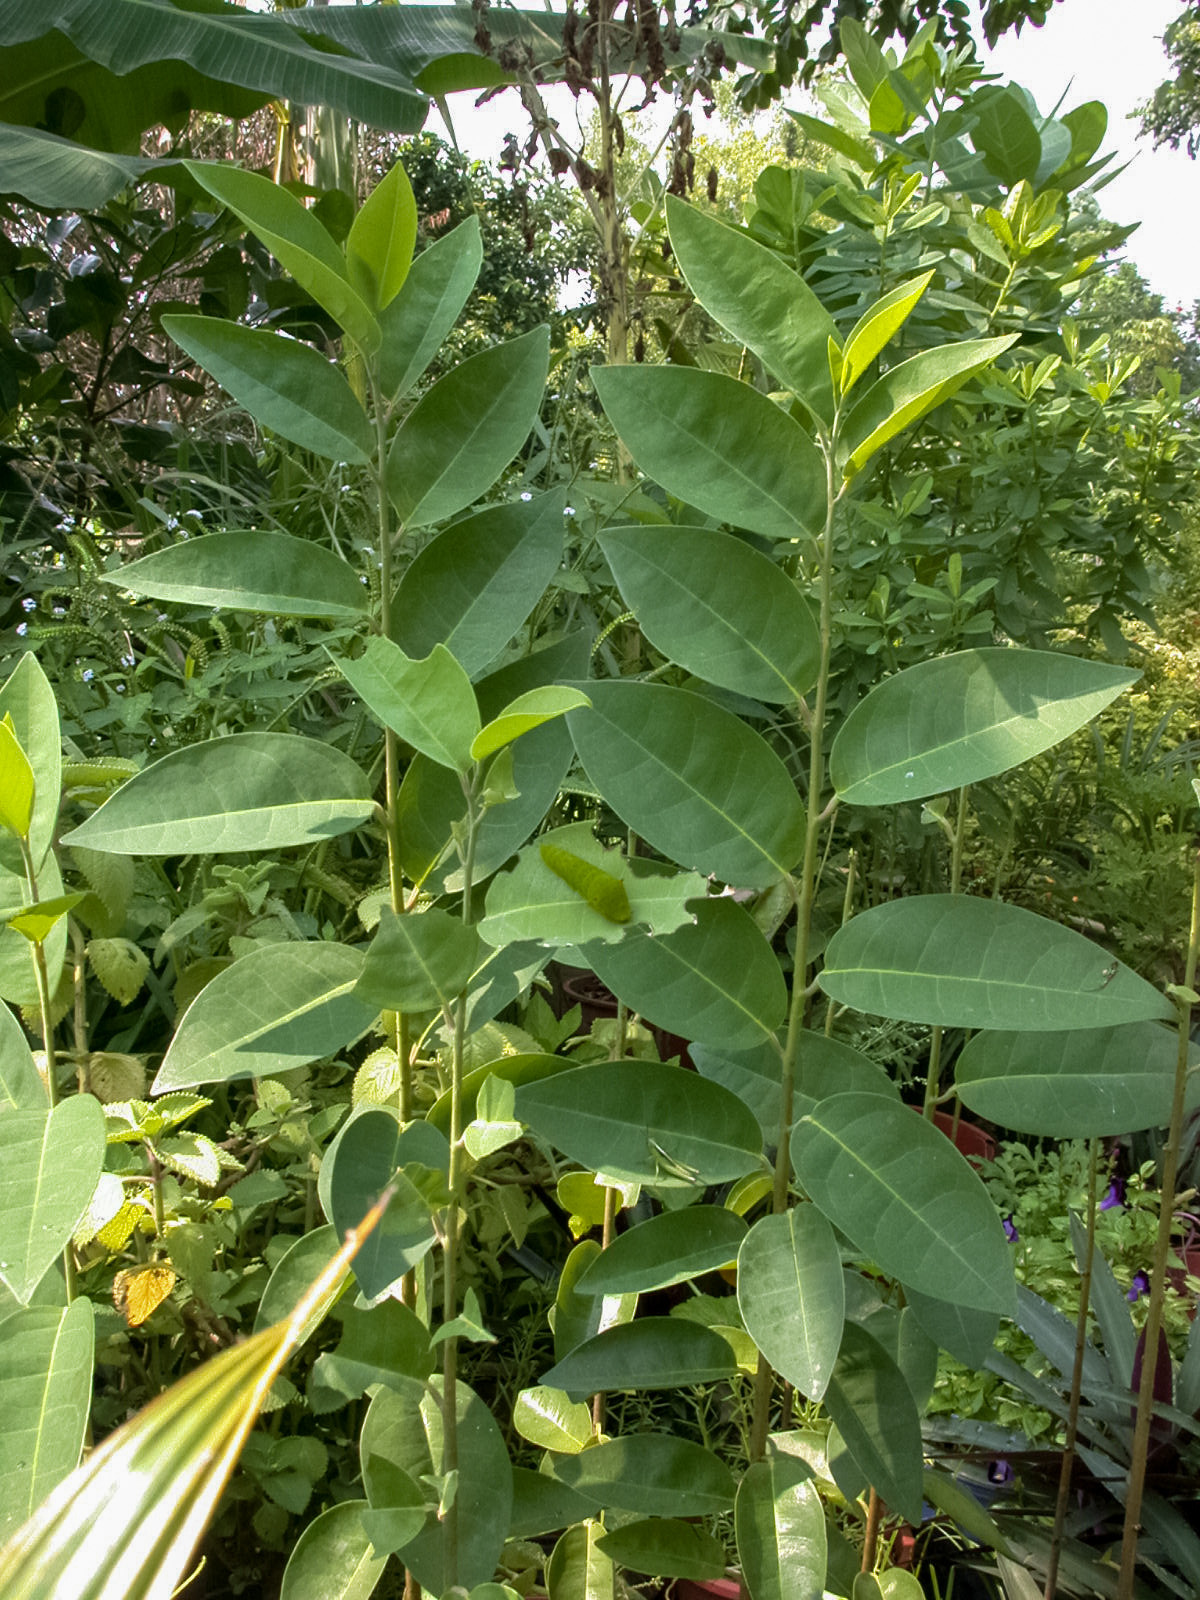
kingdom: Animalia
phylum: Arthropoda
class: Insecta
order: Lepidoptera
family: Papilionidae
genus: Graphium
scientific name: Graphium agamemnon
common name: Tailed jay
